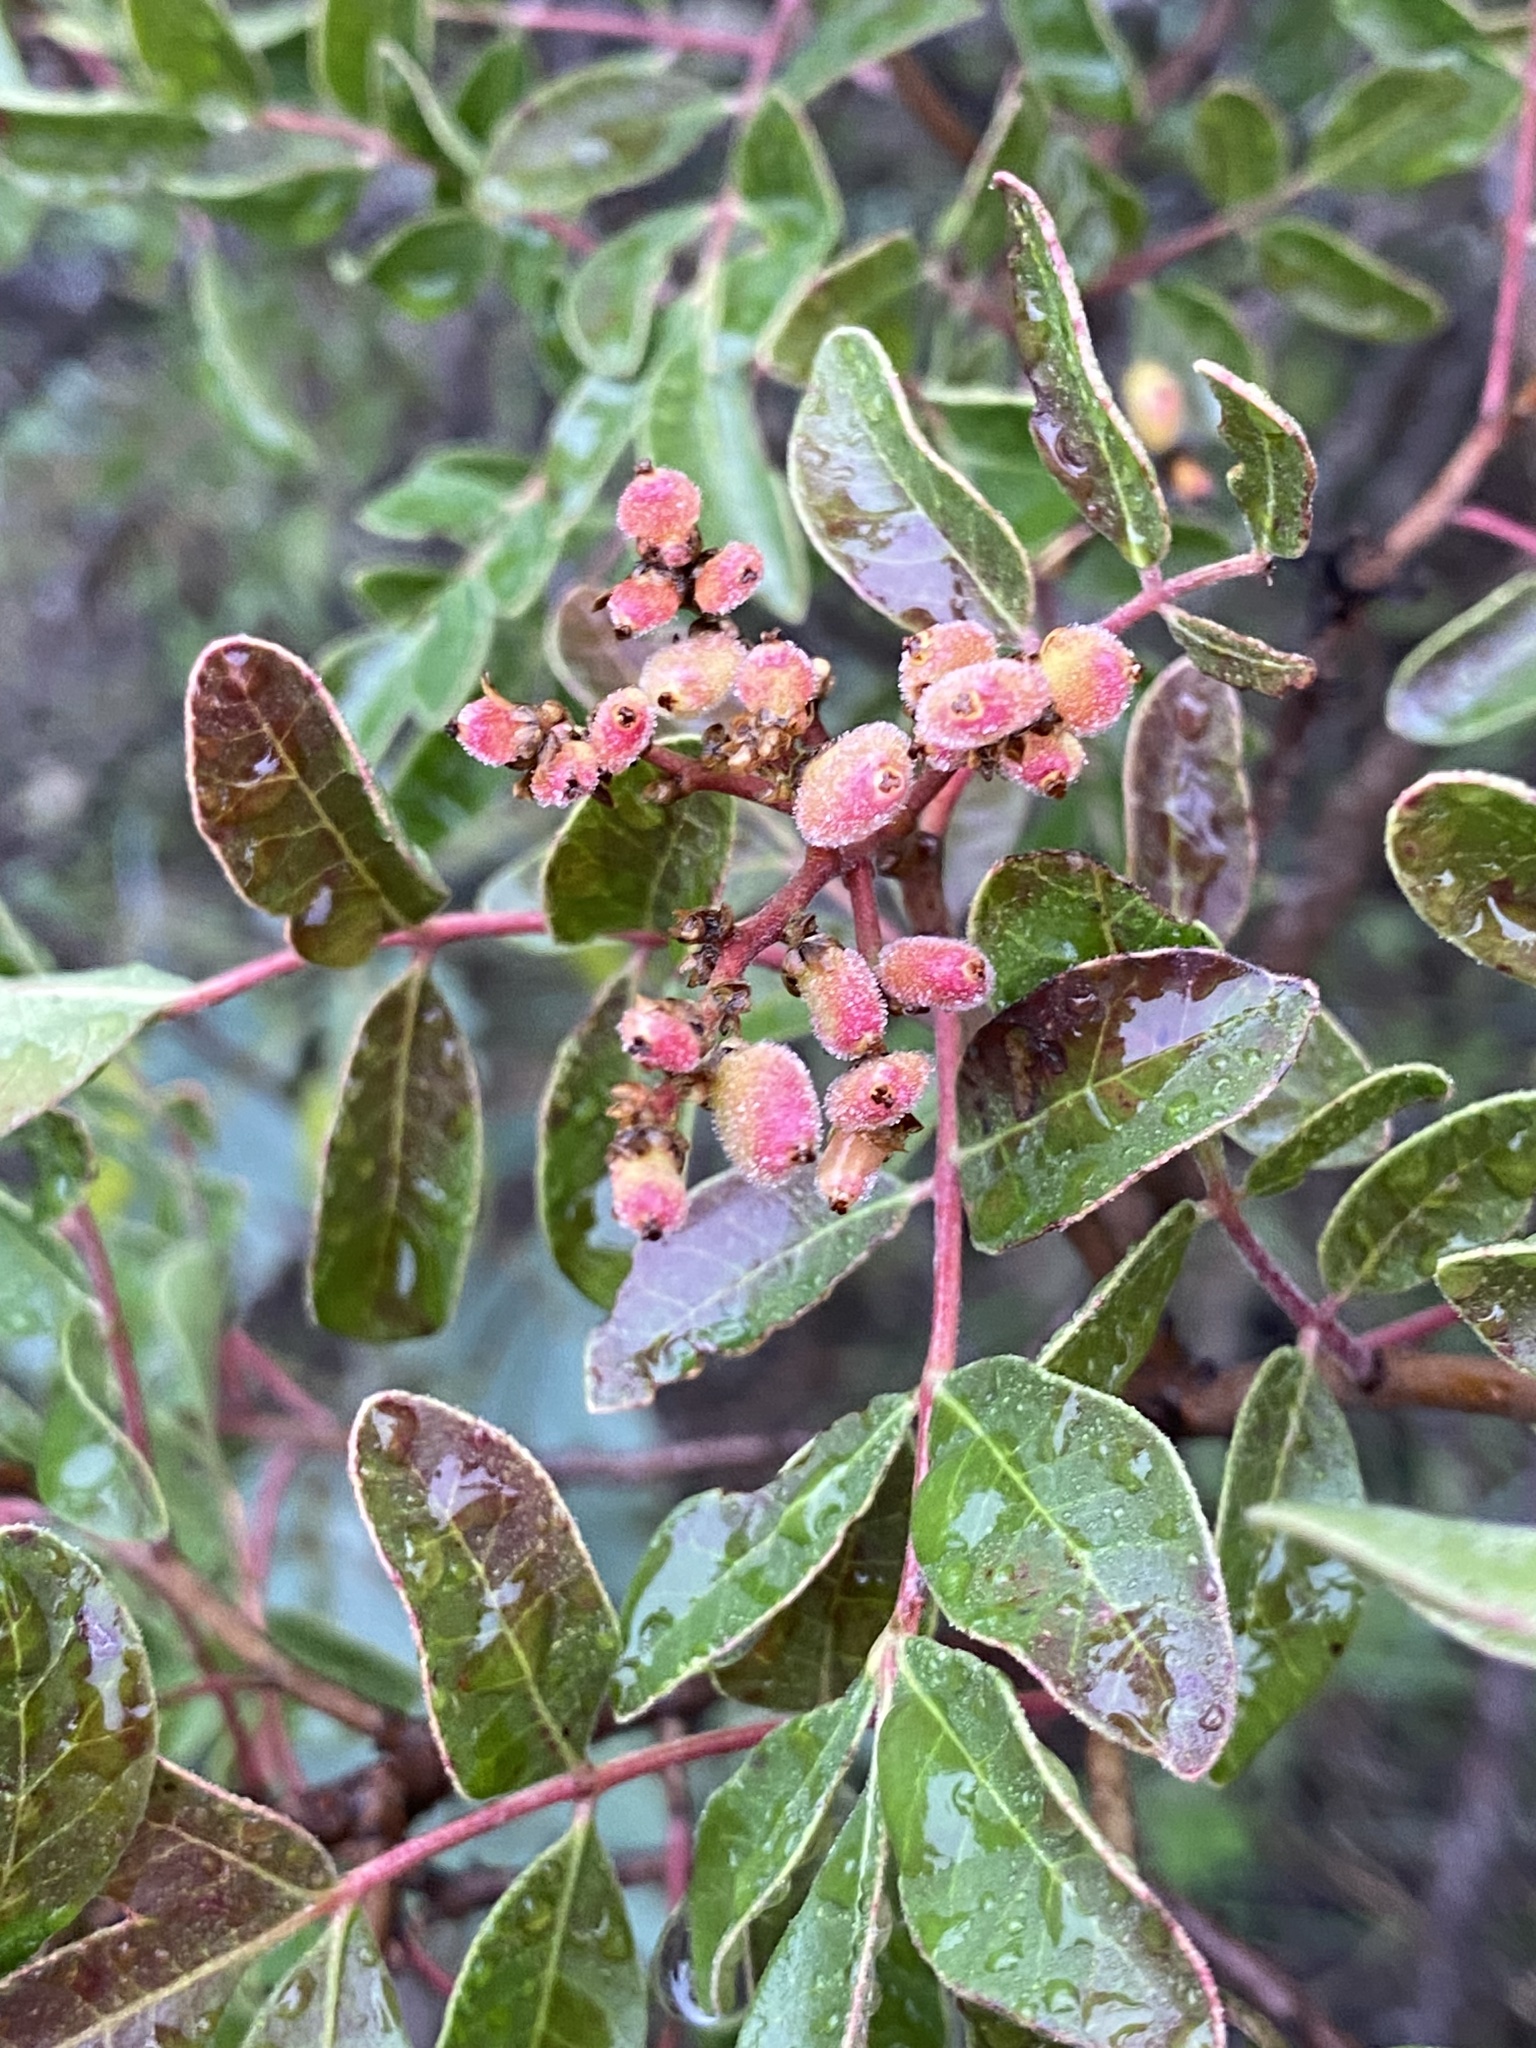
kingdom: Plantae
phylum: Tracheophyta
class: Magnoliopsida
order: Sapindales
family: Anacardiaceae
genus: Rhus
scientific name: Rhus virens
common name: Evergreen sumac
